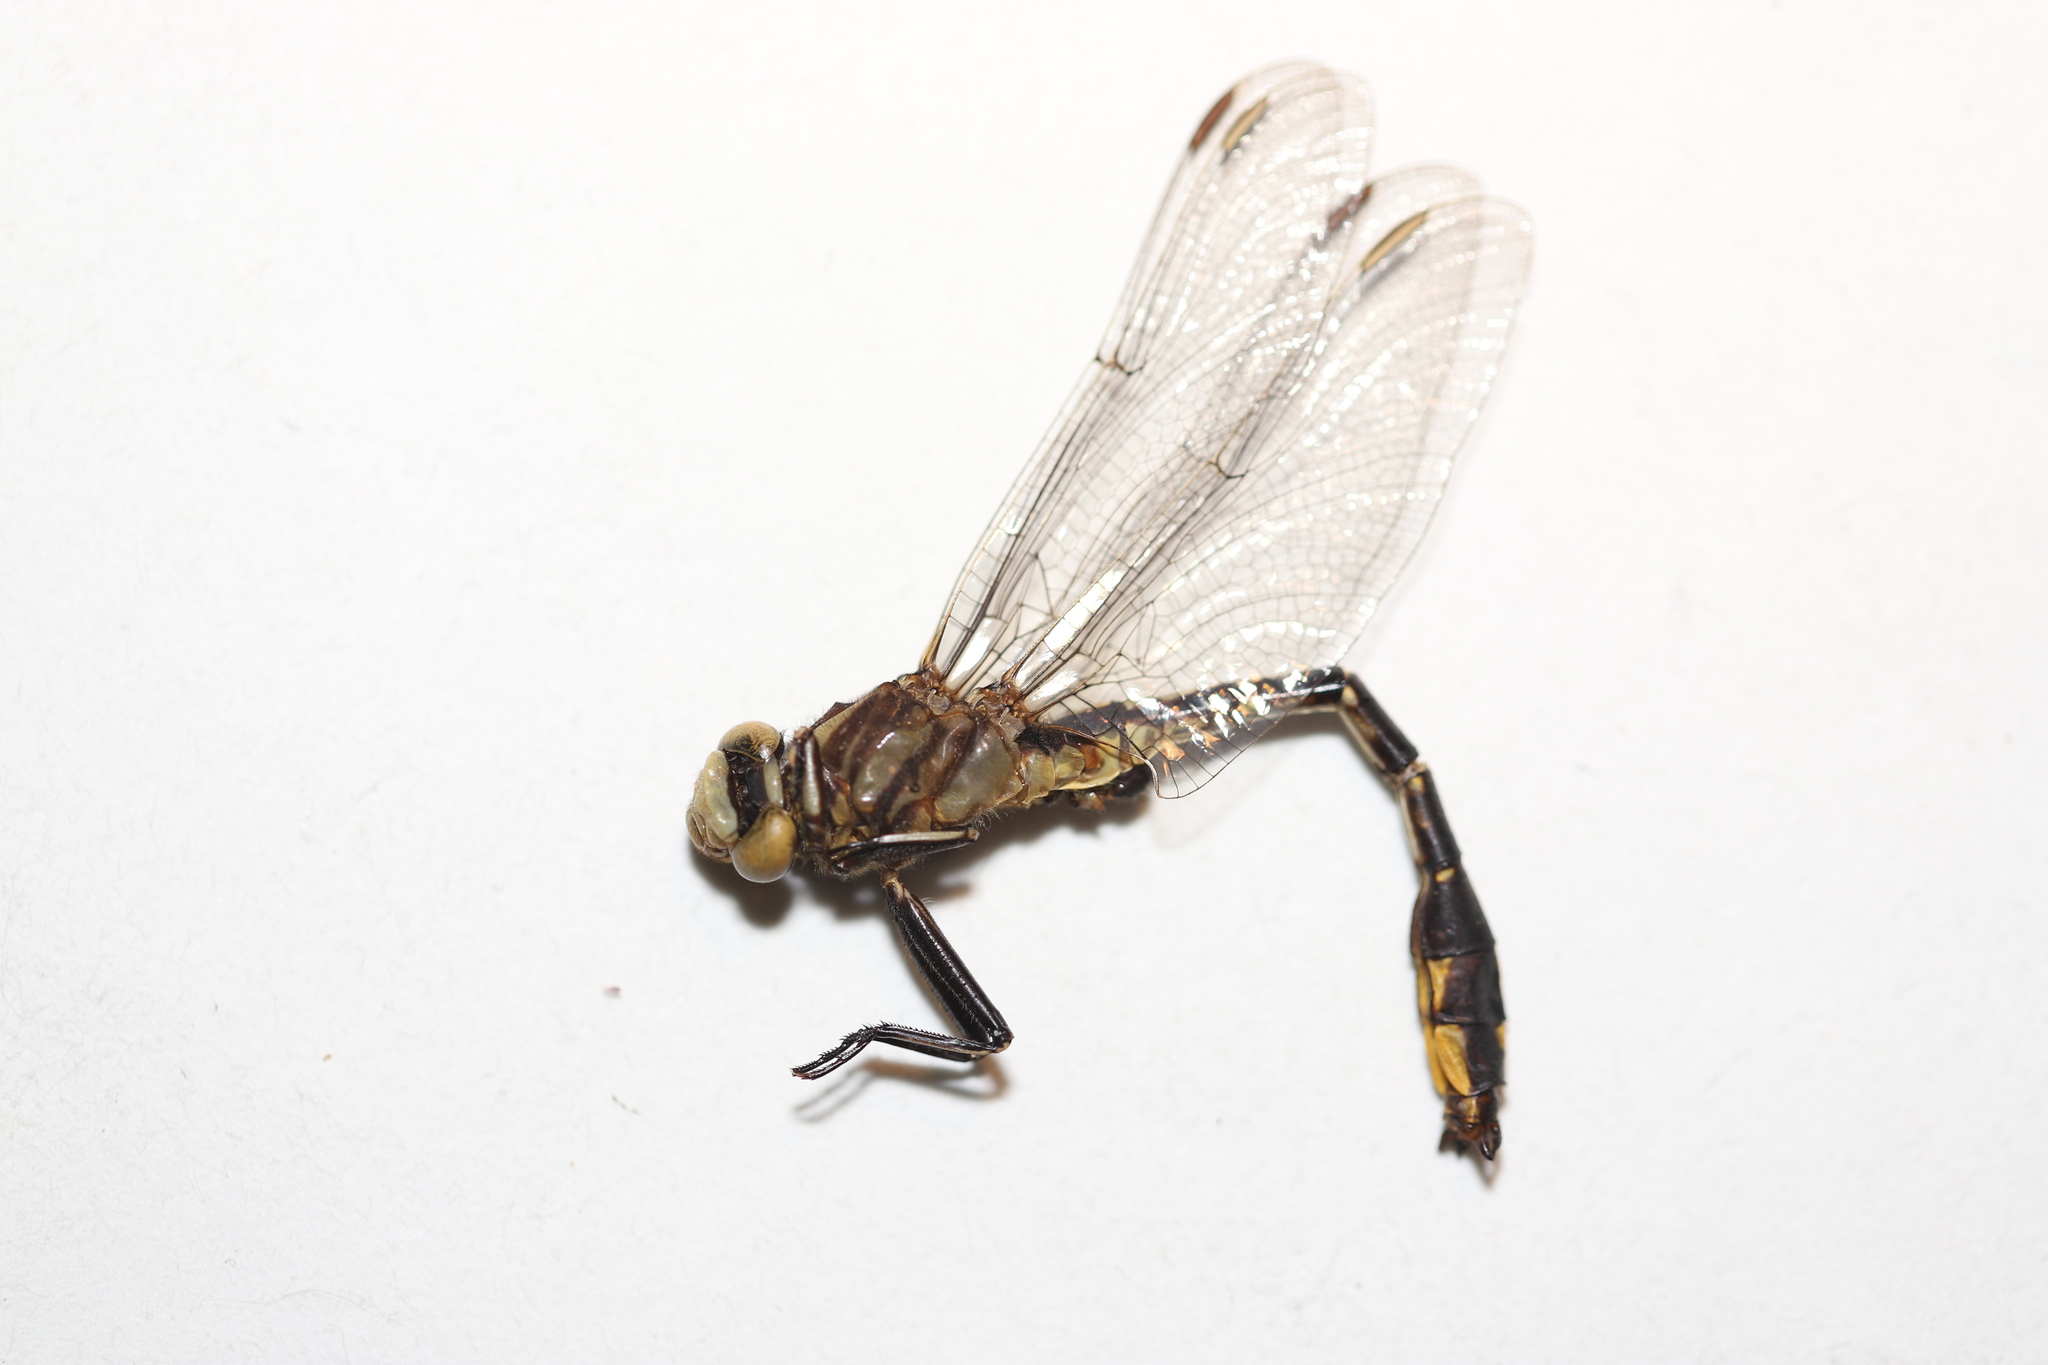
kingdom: Animalia
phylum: Arthropoda
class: Insecta
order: Odonata
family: Gomphidae
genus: Phanogomphus
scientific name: Phanogomphus graslinellus
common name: Pronghorn clubtail
